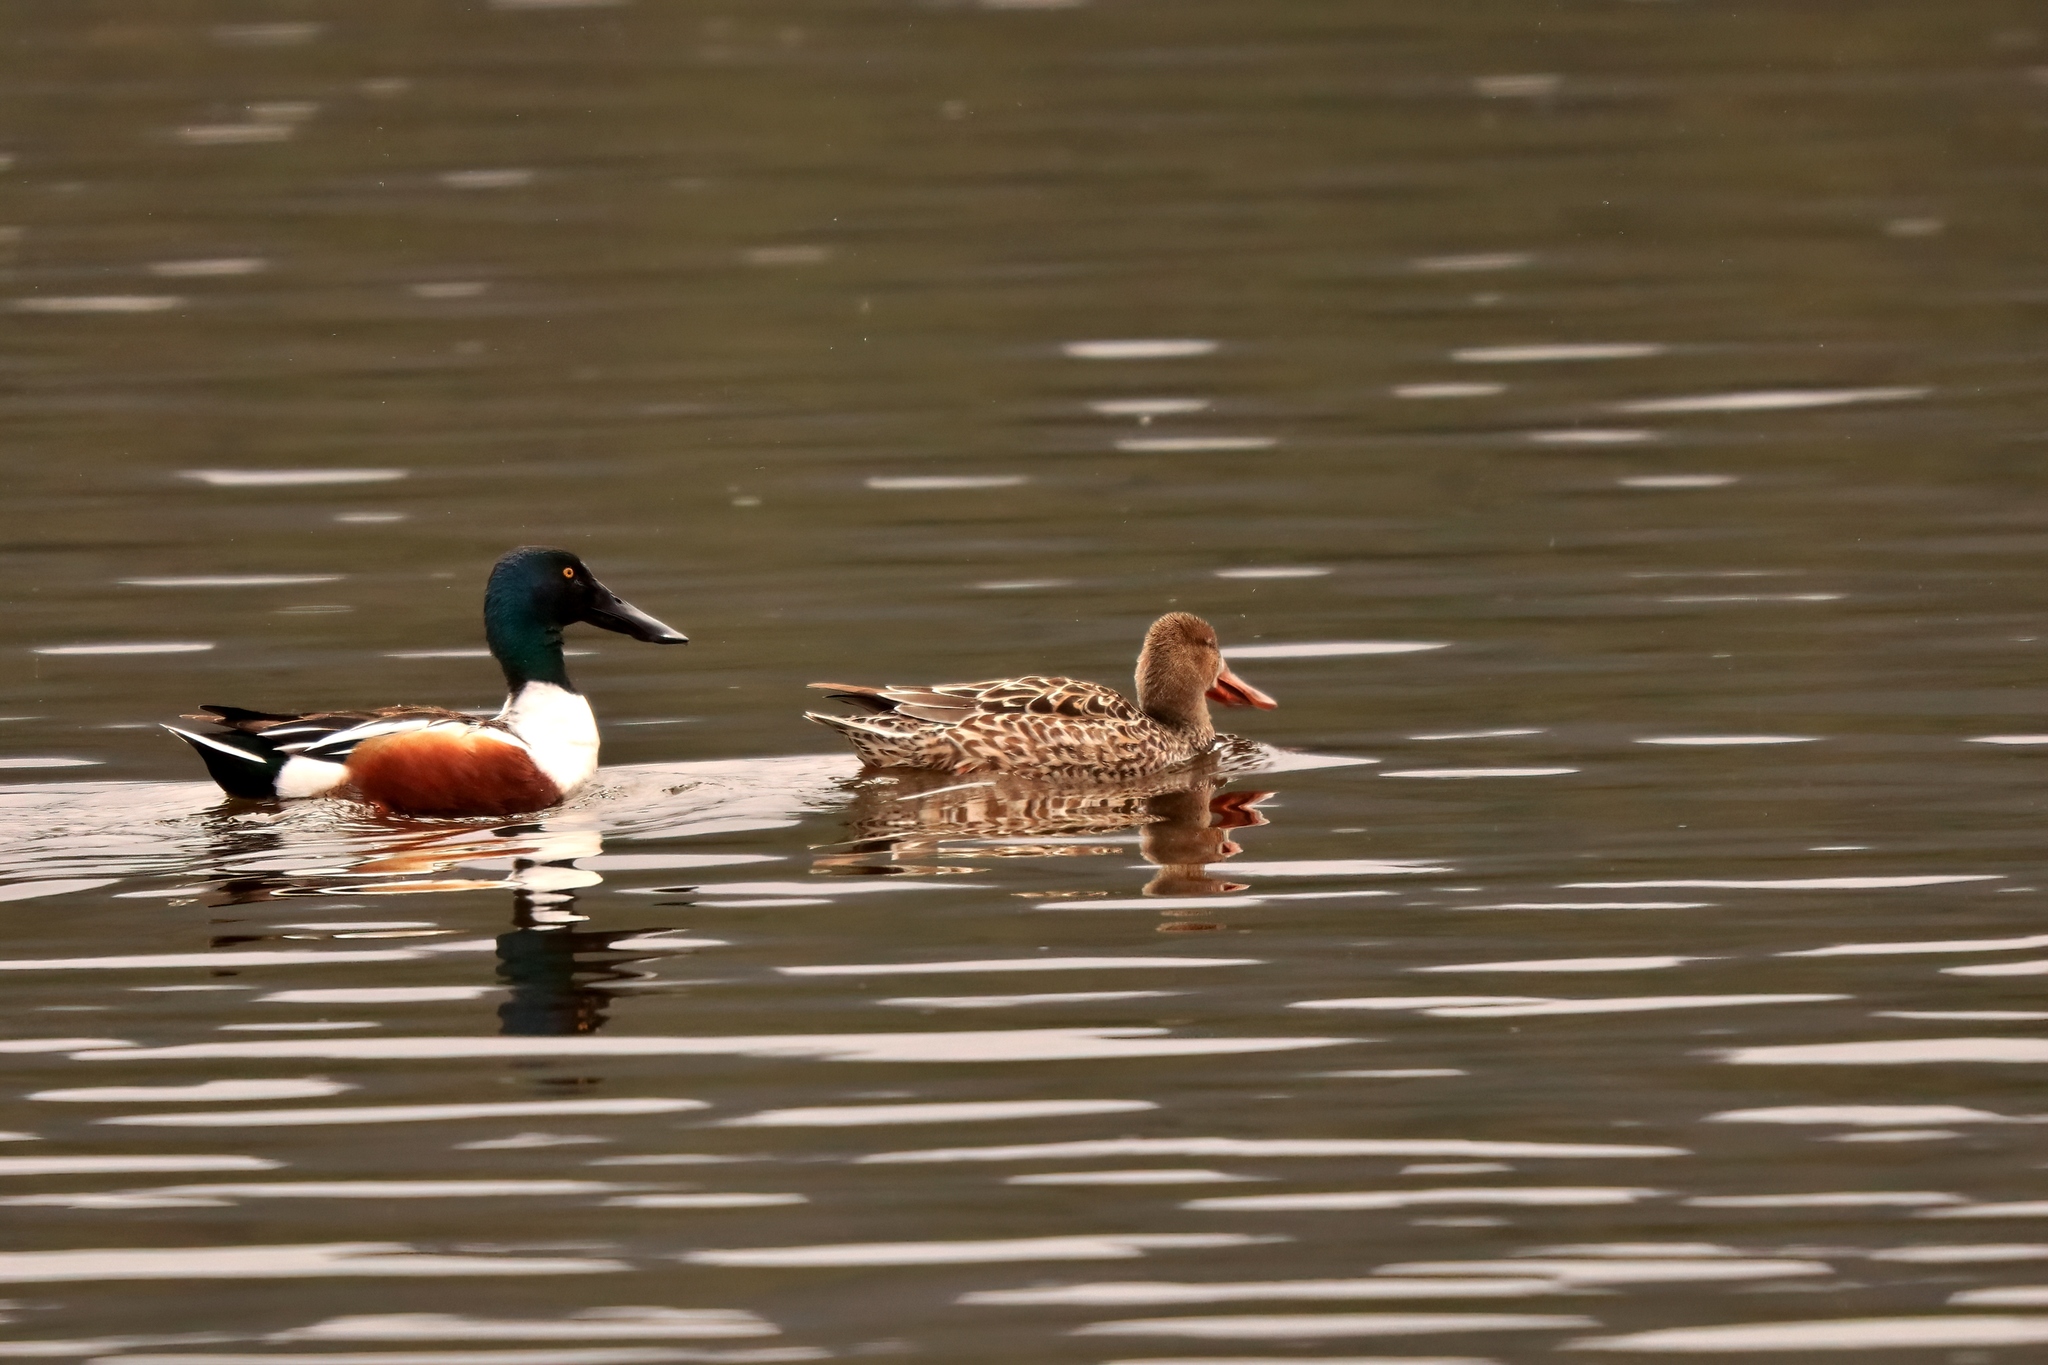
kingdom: Animalia
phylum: Chordata
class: Aves
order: Anseriformes
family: Anatidae
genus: Spatula
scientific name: Spatula clypeata
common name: Northern shoveler
